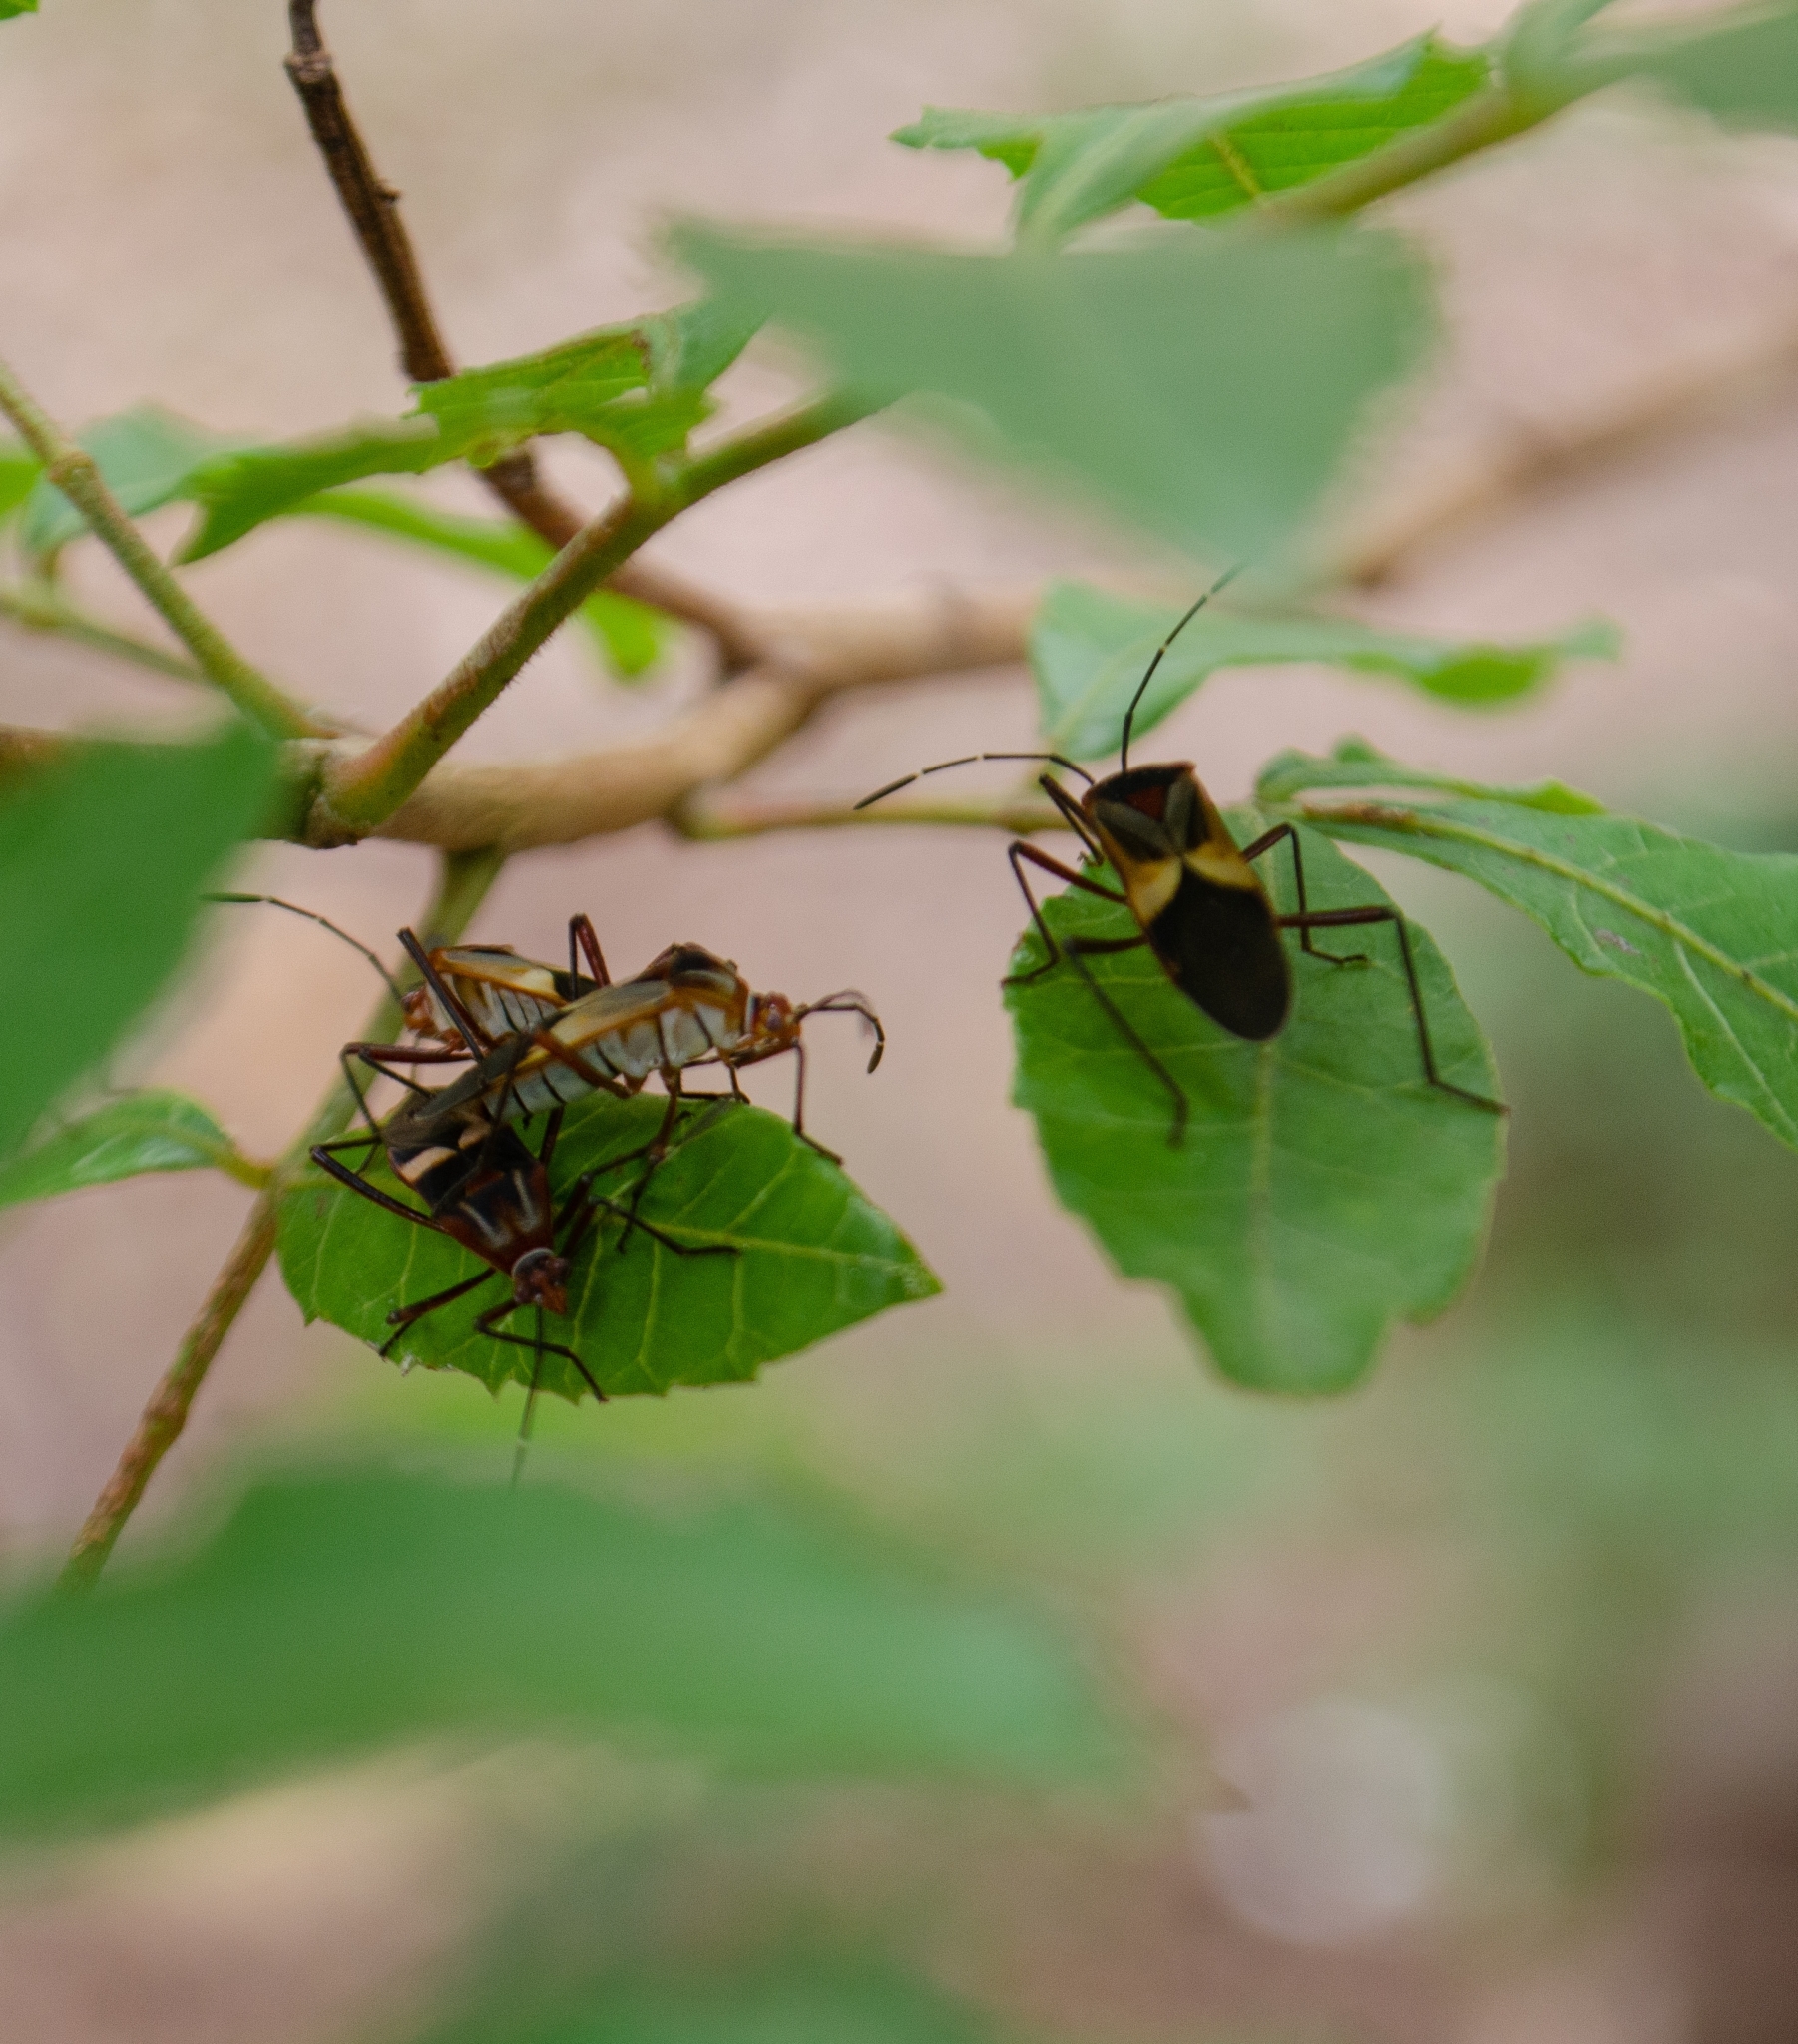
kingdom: Animalia
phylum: Arthropoda
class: Insecta
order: Hemiptera
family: Coreidae
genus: Hypselonotus
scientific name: Hypselonotus interruptus
